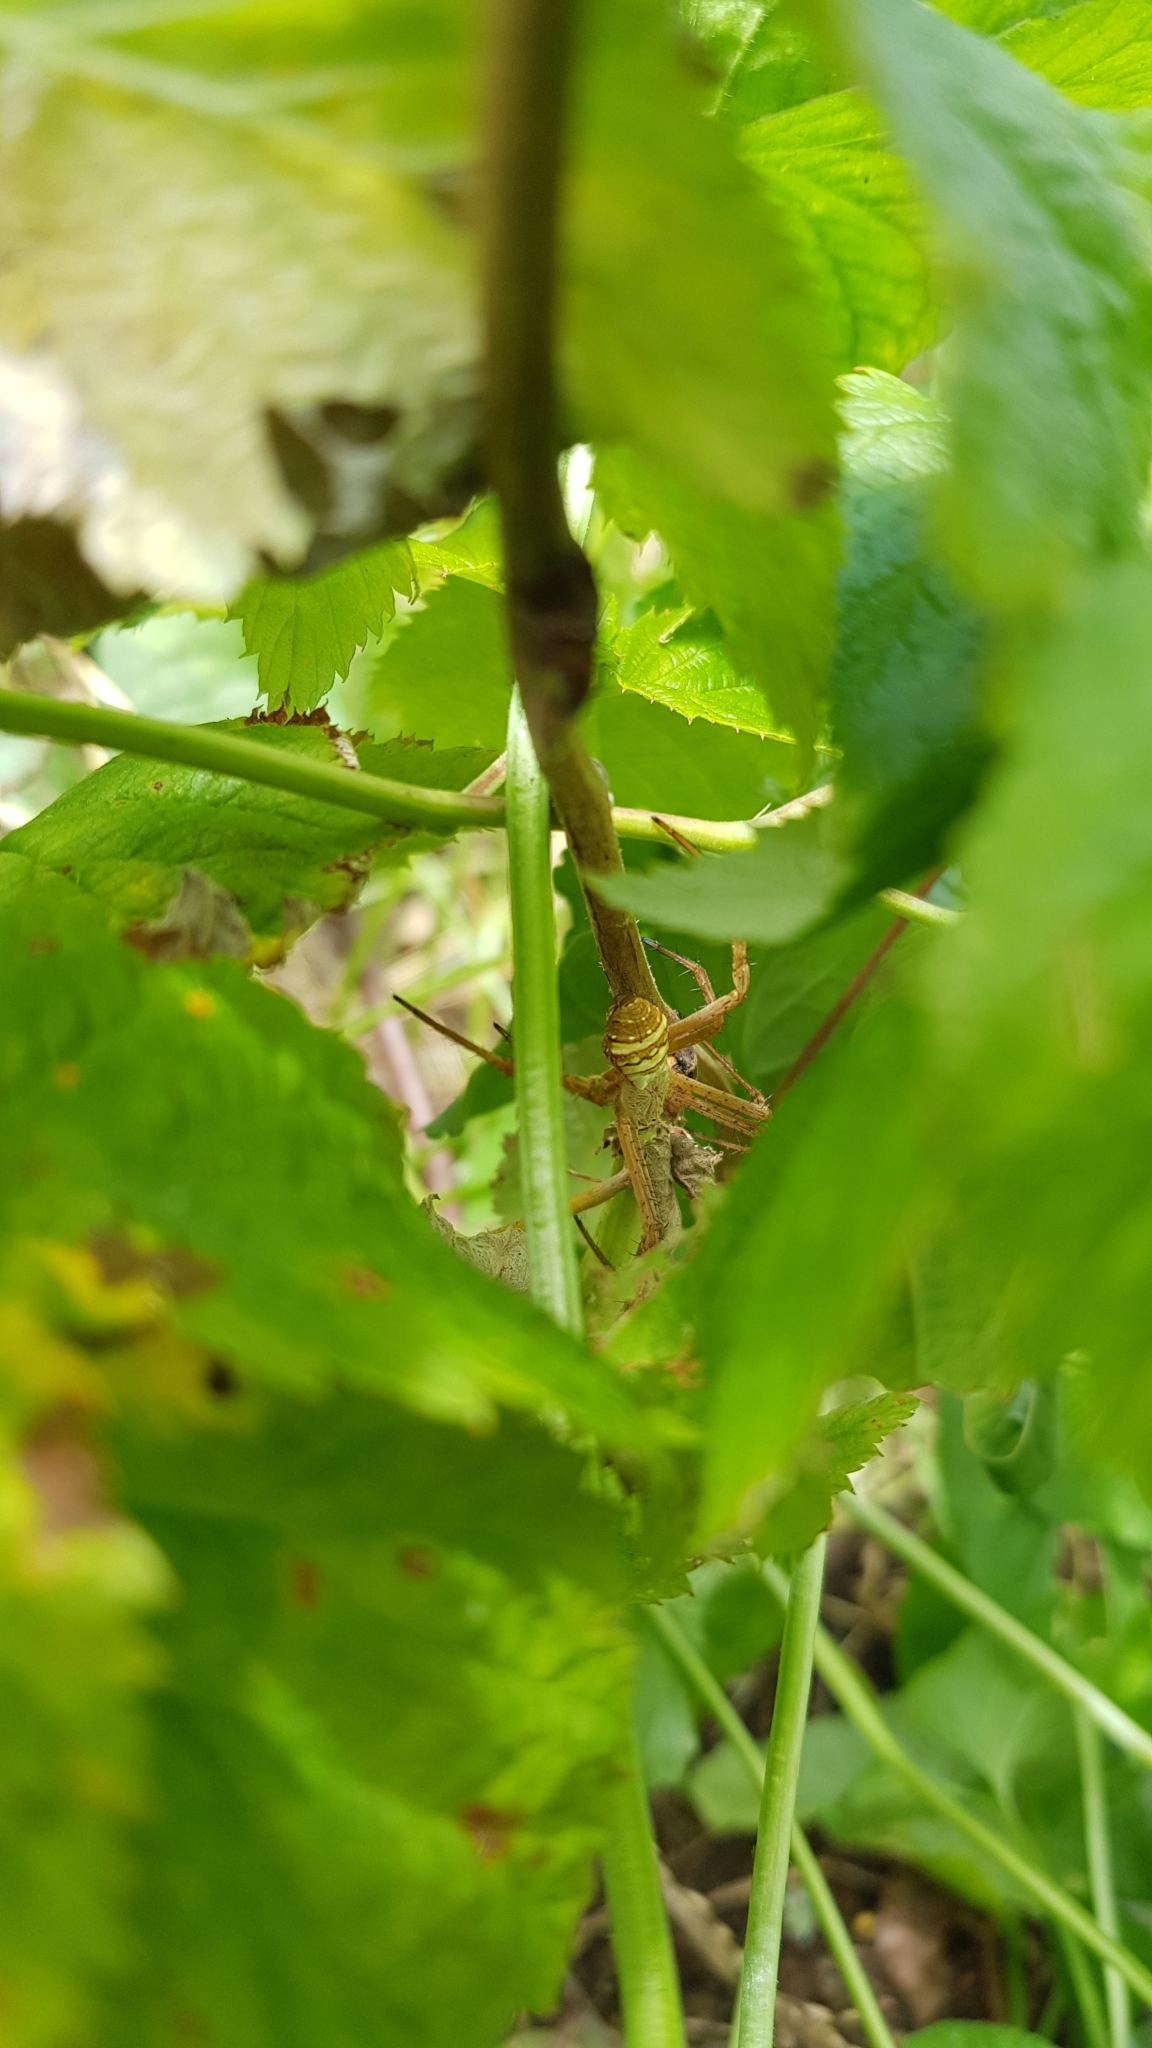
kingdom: Animalia
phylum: Arthropoda
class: Arachnida
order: Araneae
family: Araneidae
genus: Argiope
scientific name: Argiope keyserlingi
